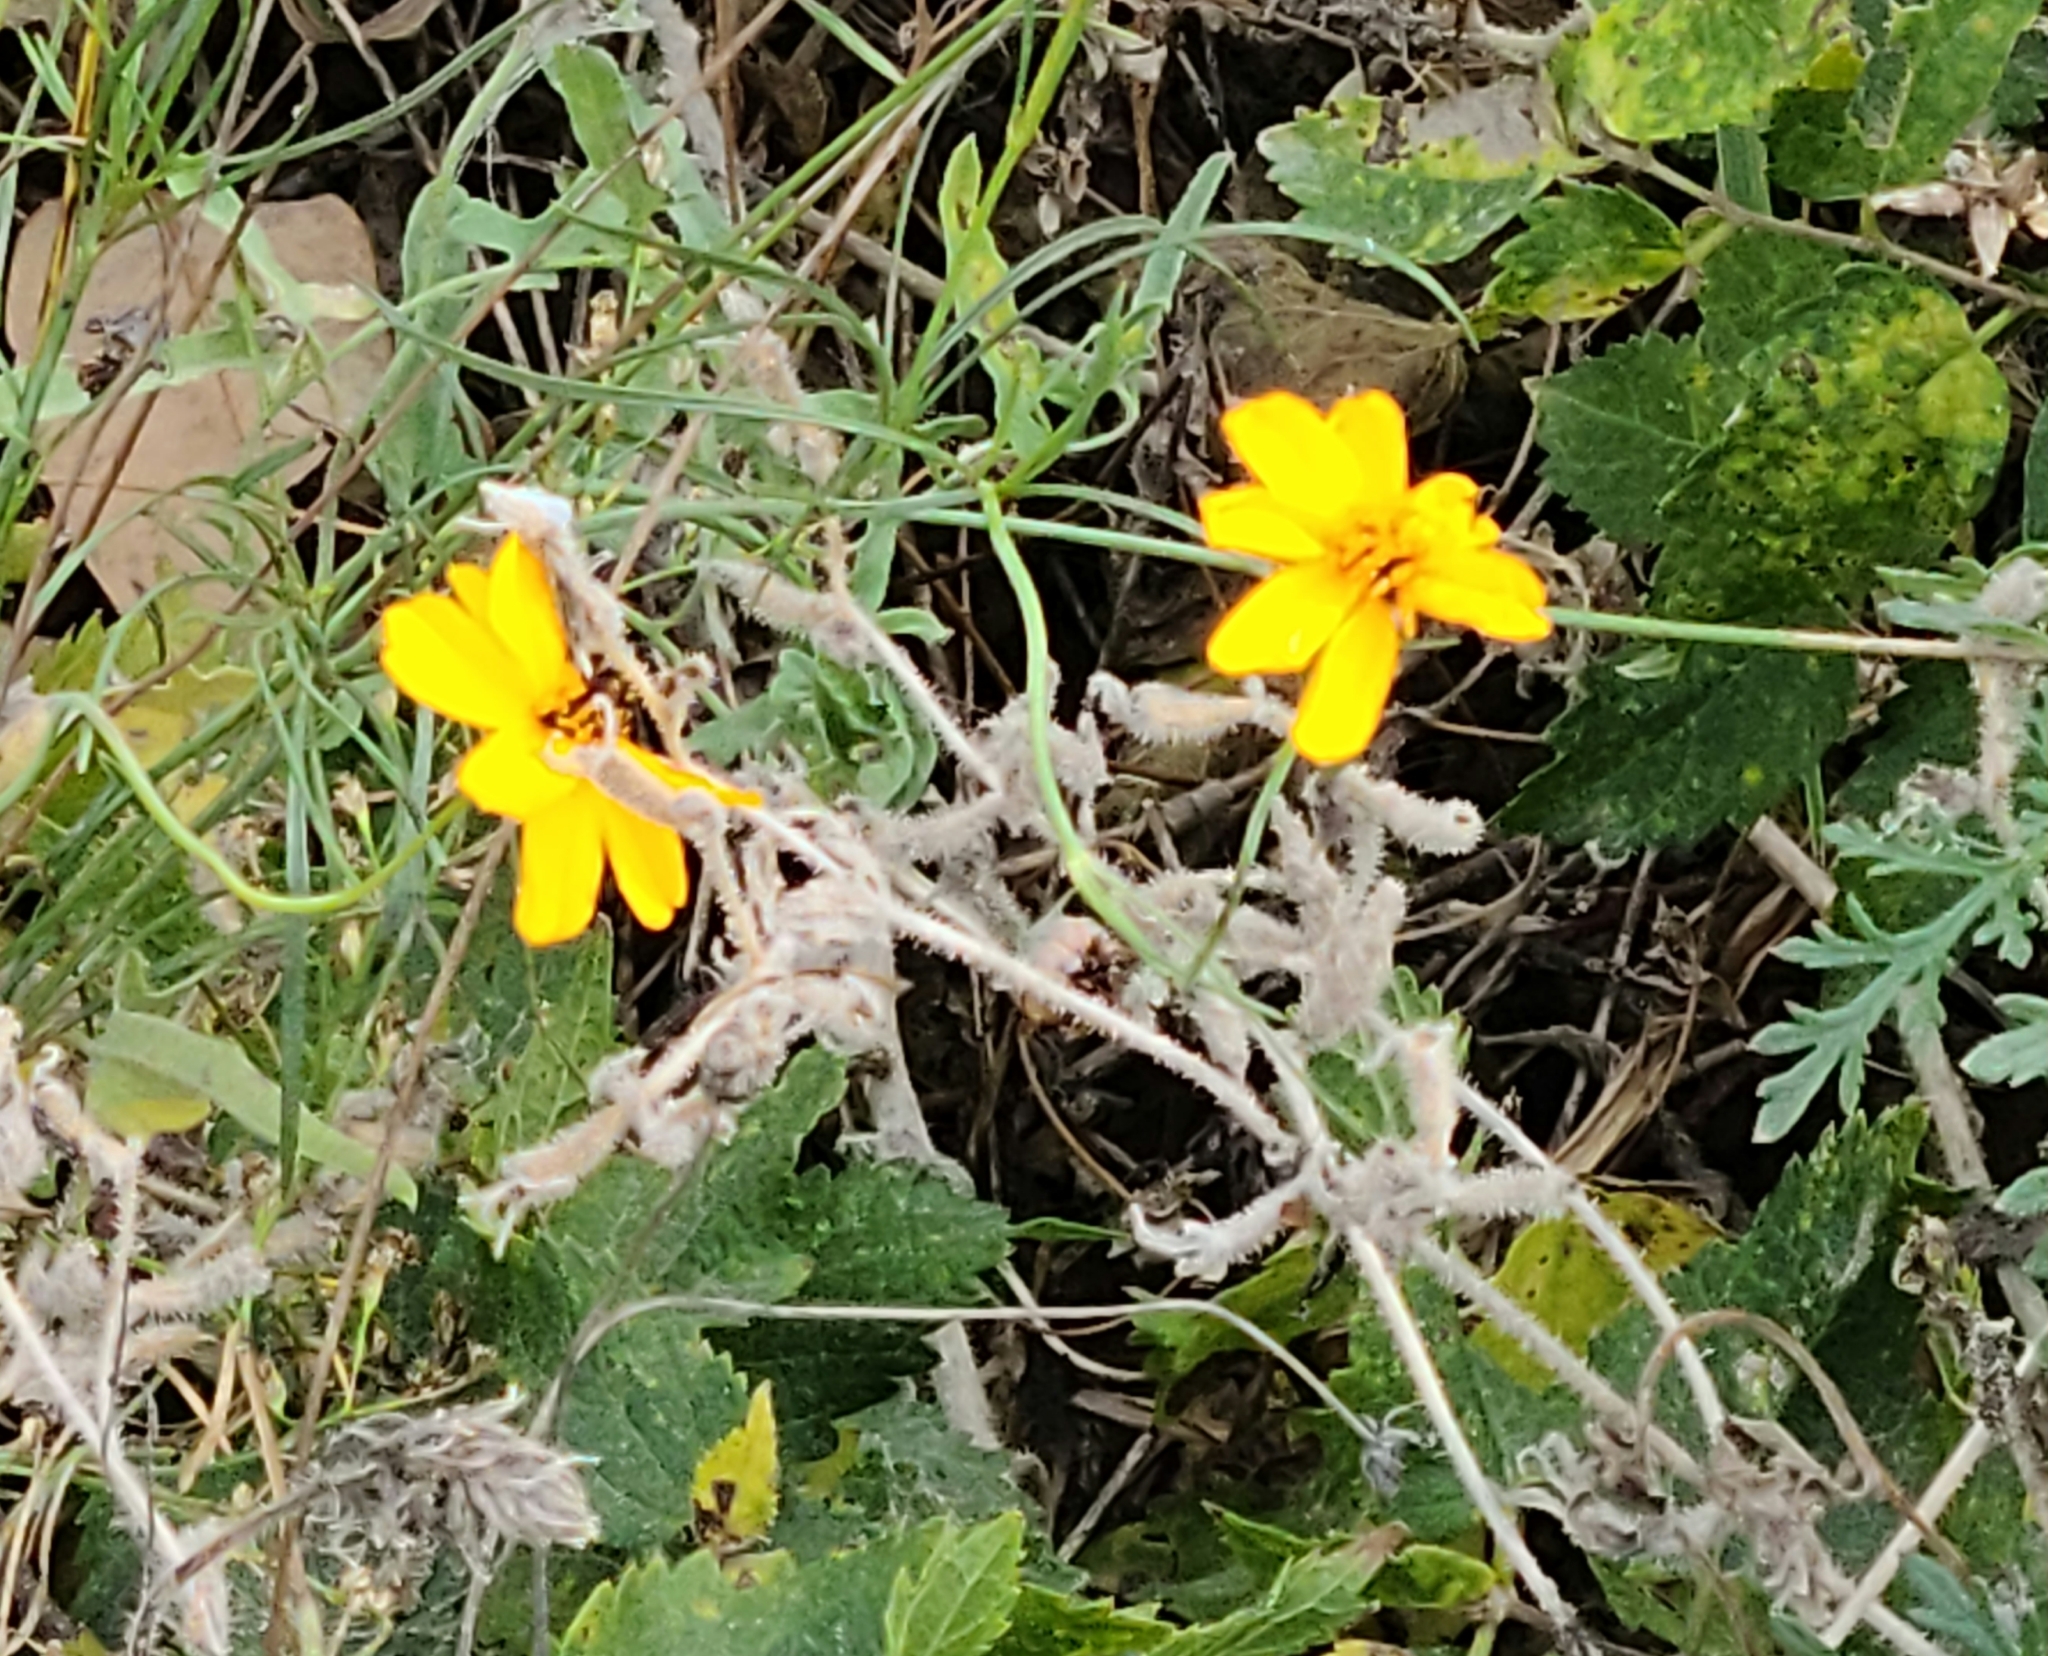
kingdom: Plantae
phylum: Tracheophyta
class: Magnoliopsida
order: Asterales
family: Asteraceae
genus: Thelesperma
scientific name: Thelesperma simplicifolium
